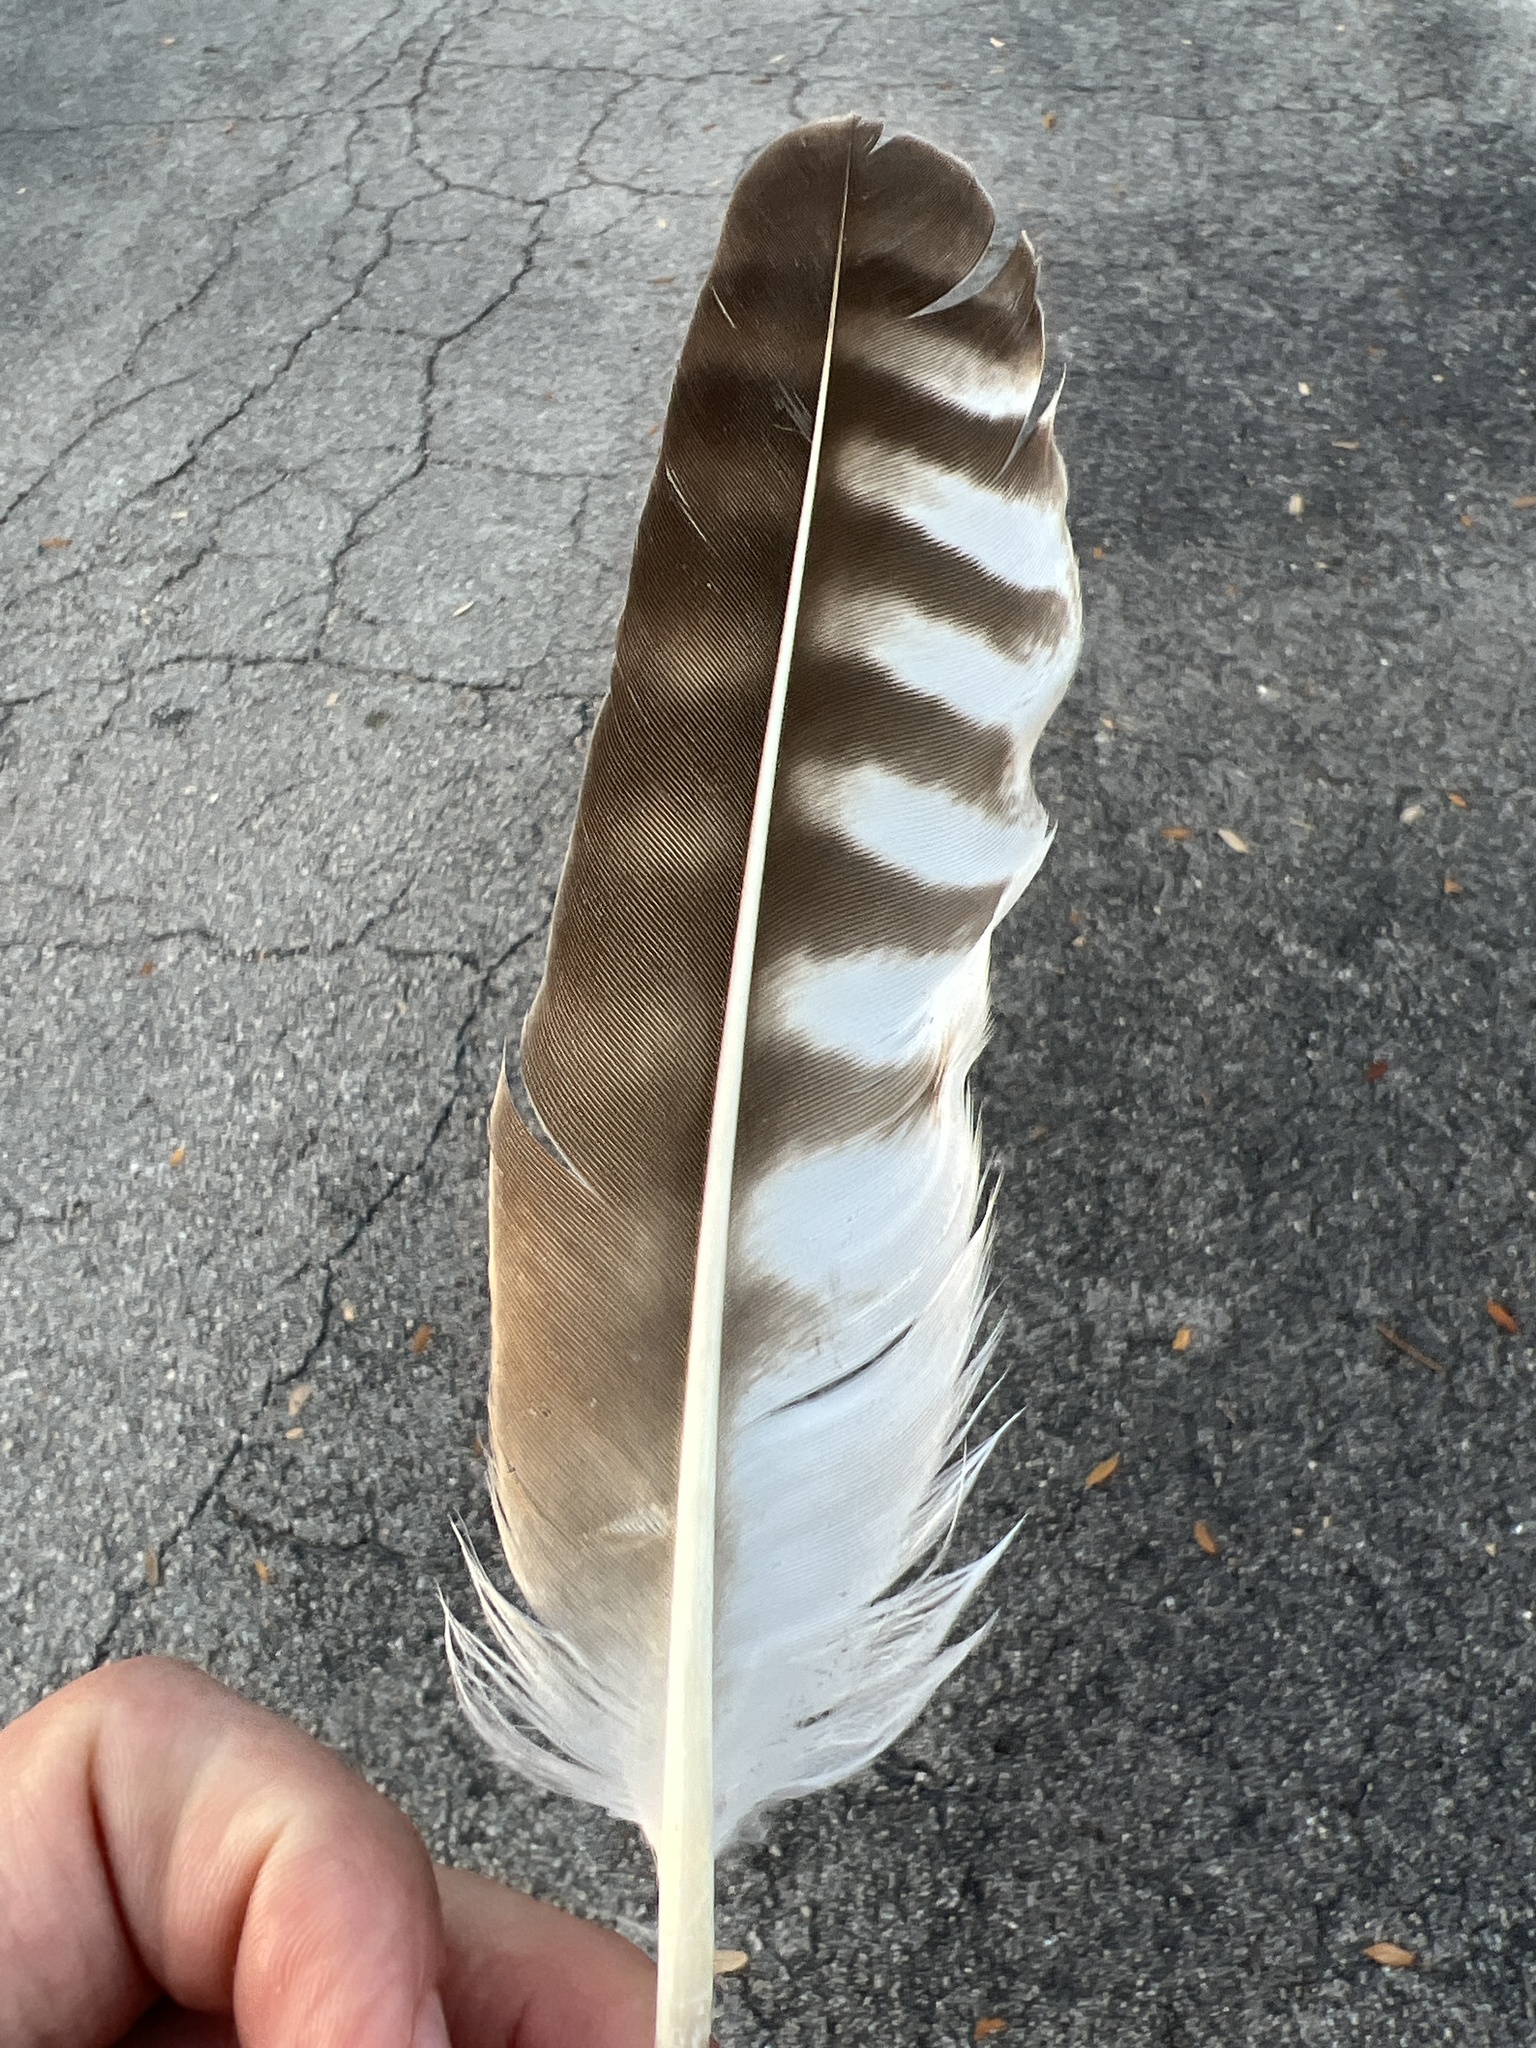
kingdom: Animalia
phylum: Chordata
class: Aves
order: Accipitriformes
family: Pandionidae
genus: Pandion
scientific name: Pandion haliaetus
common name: Osprey
